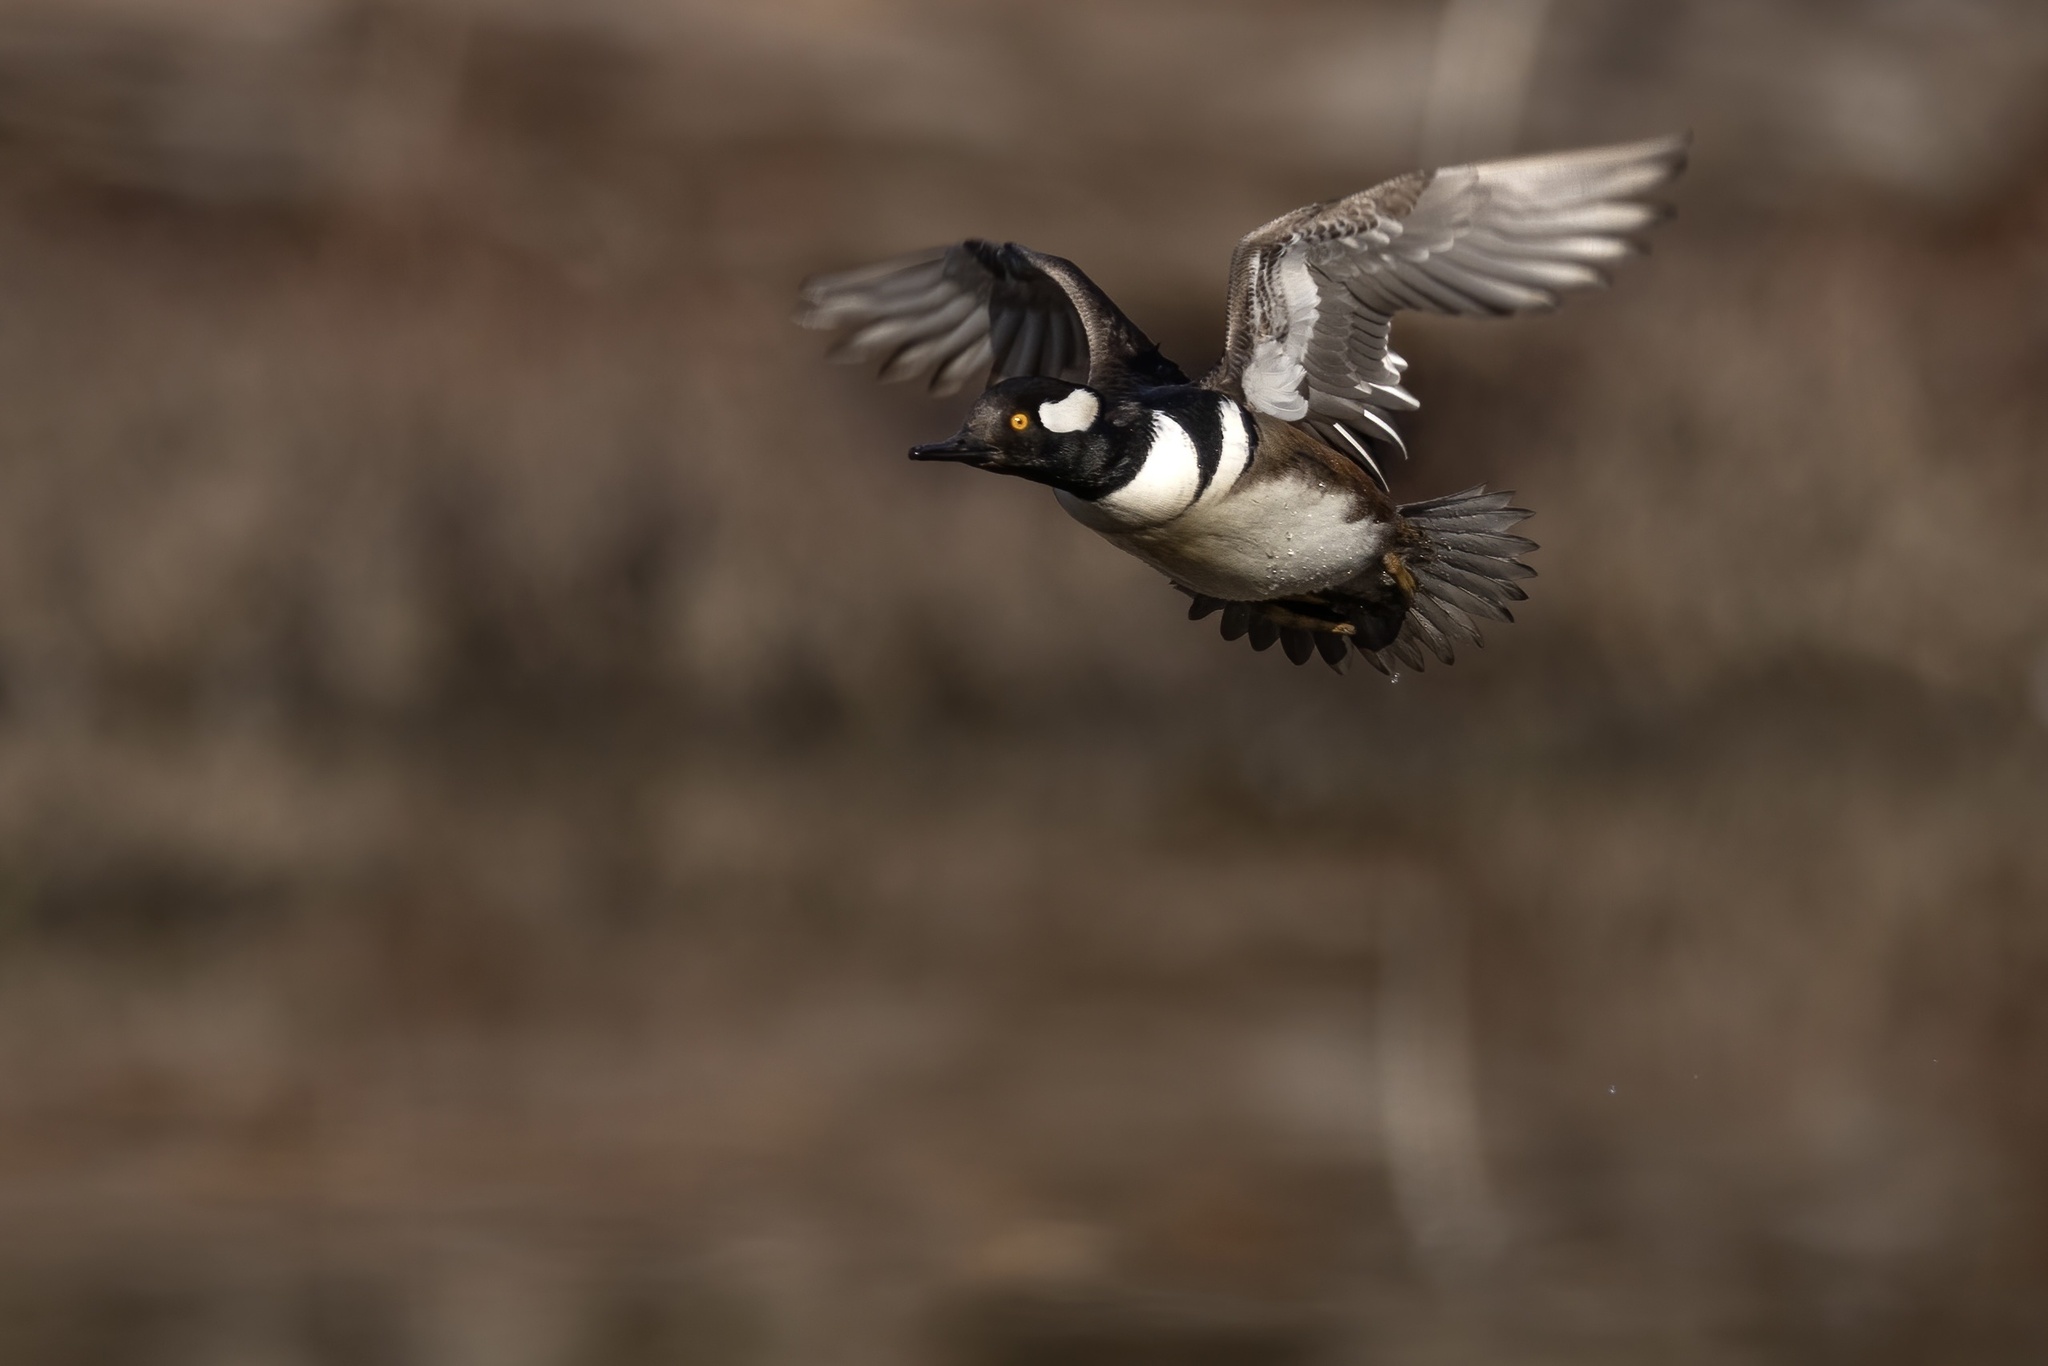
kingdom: Animalia
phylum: Chordata
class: Aves
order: Anseriformes
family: Anatidae
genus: Lophodytes
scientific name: Lophodytes cucullatus
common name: Hooded merganser
